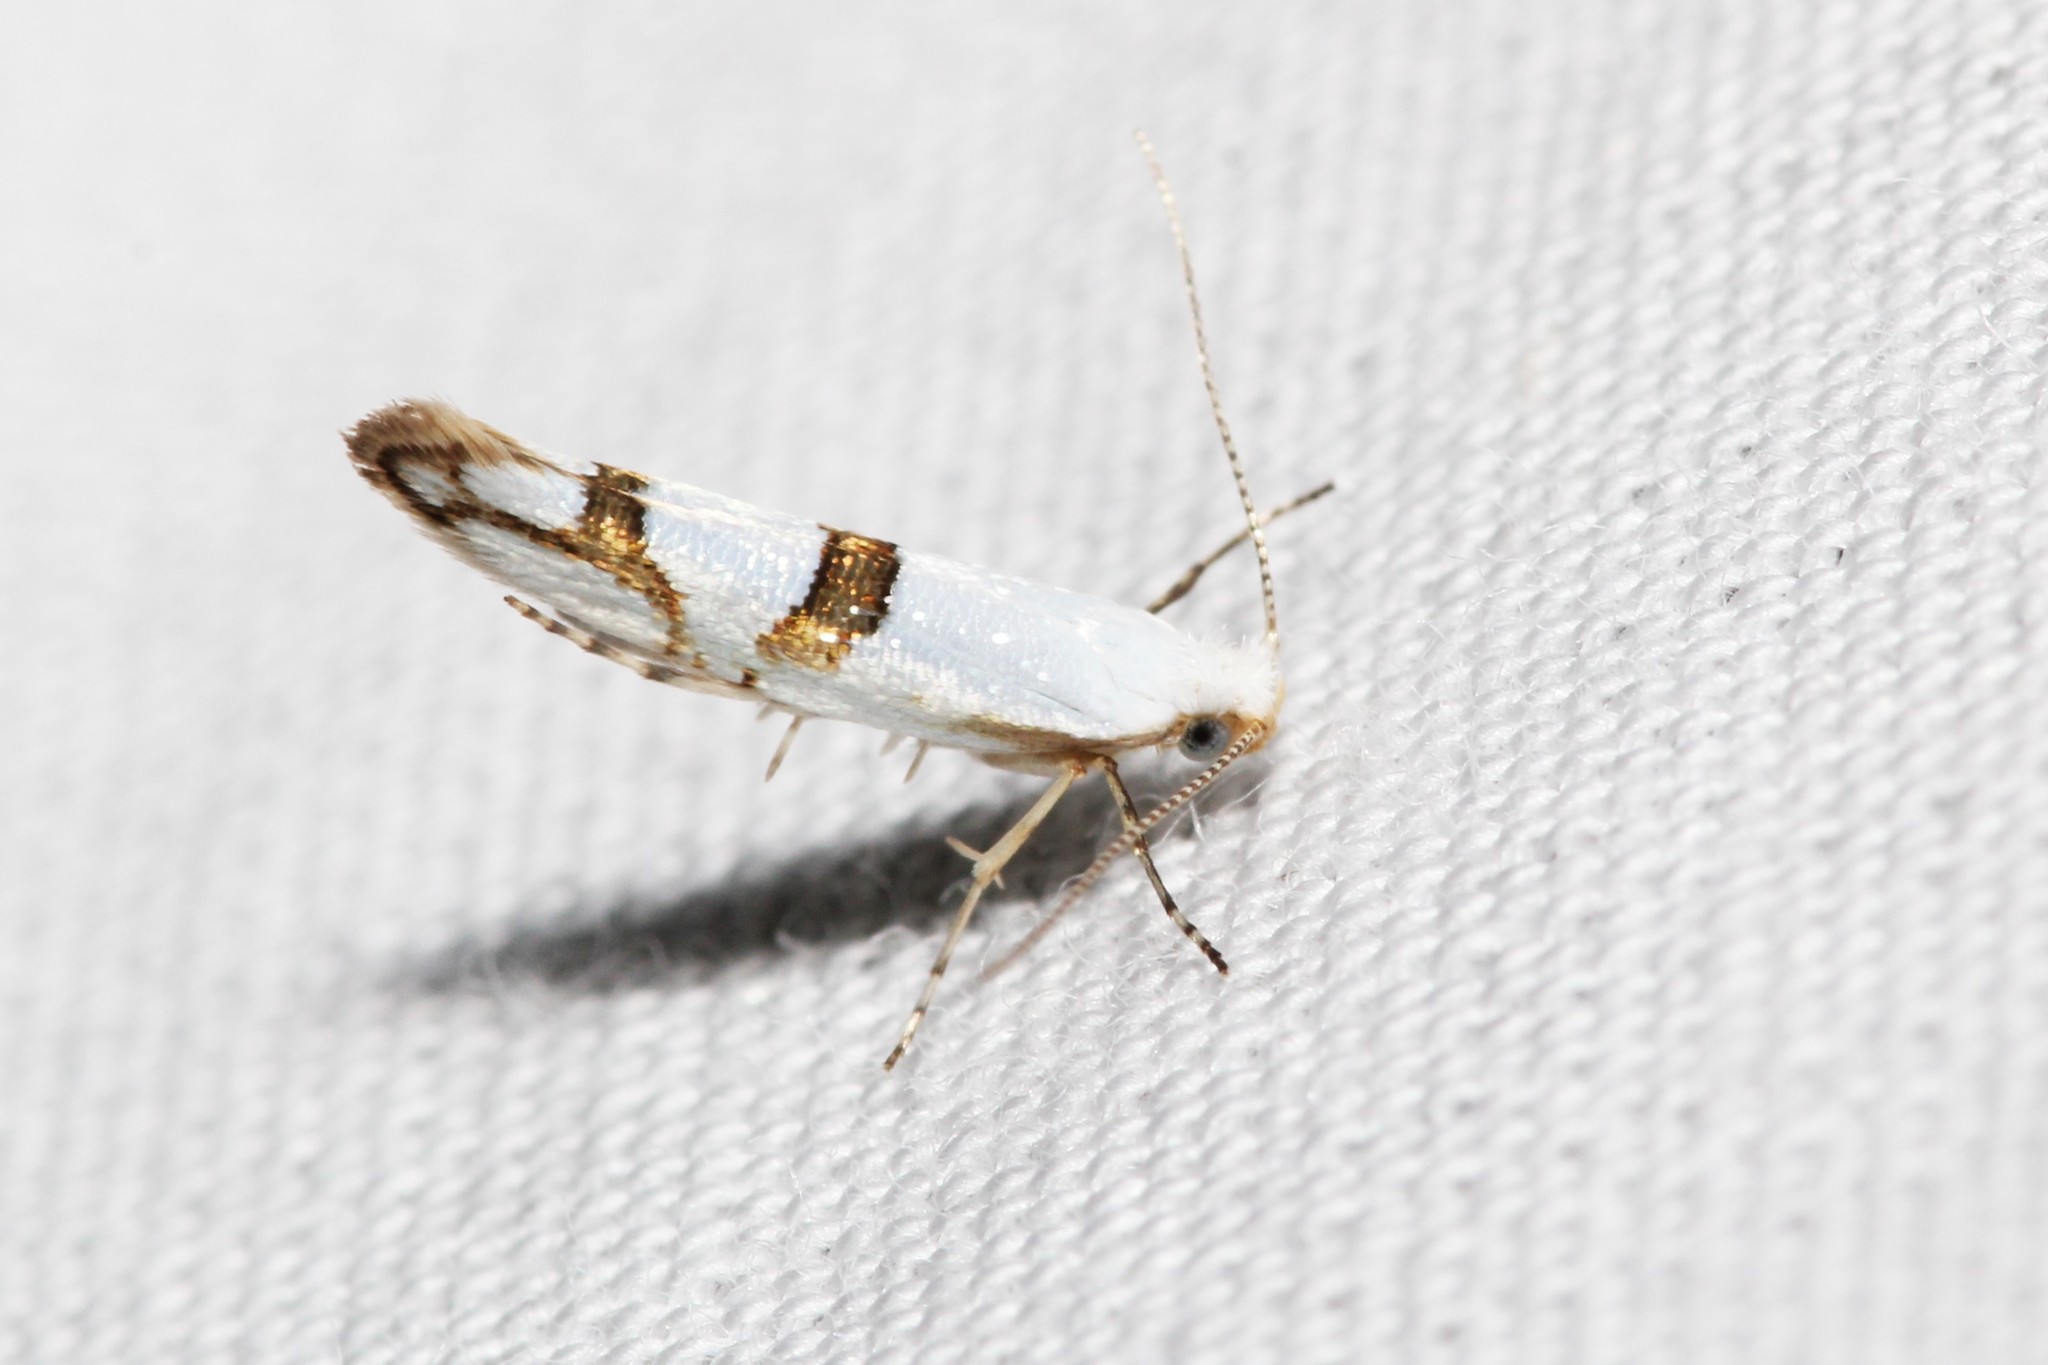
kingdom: Animalia
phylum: Arthropoda
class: Insecta
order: Lepidoptera
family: Argyresthiidae
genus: Argyresthia
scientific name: Argyresthia oreasella
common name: Cherry shoot borer moth
